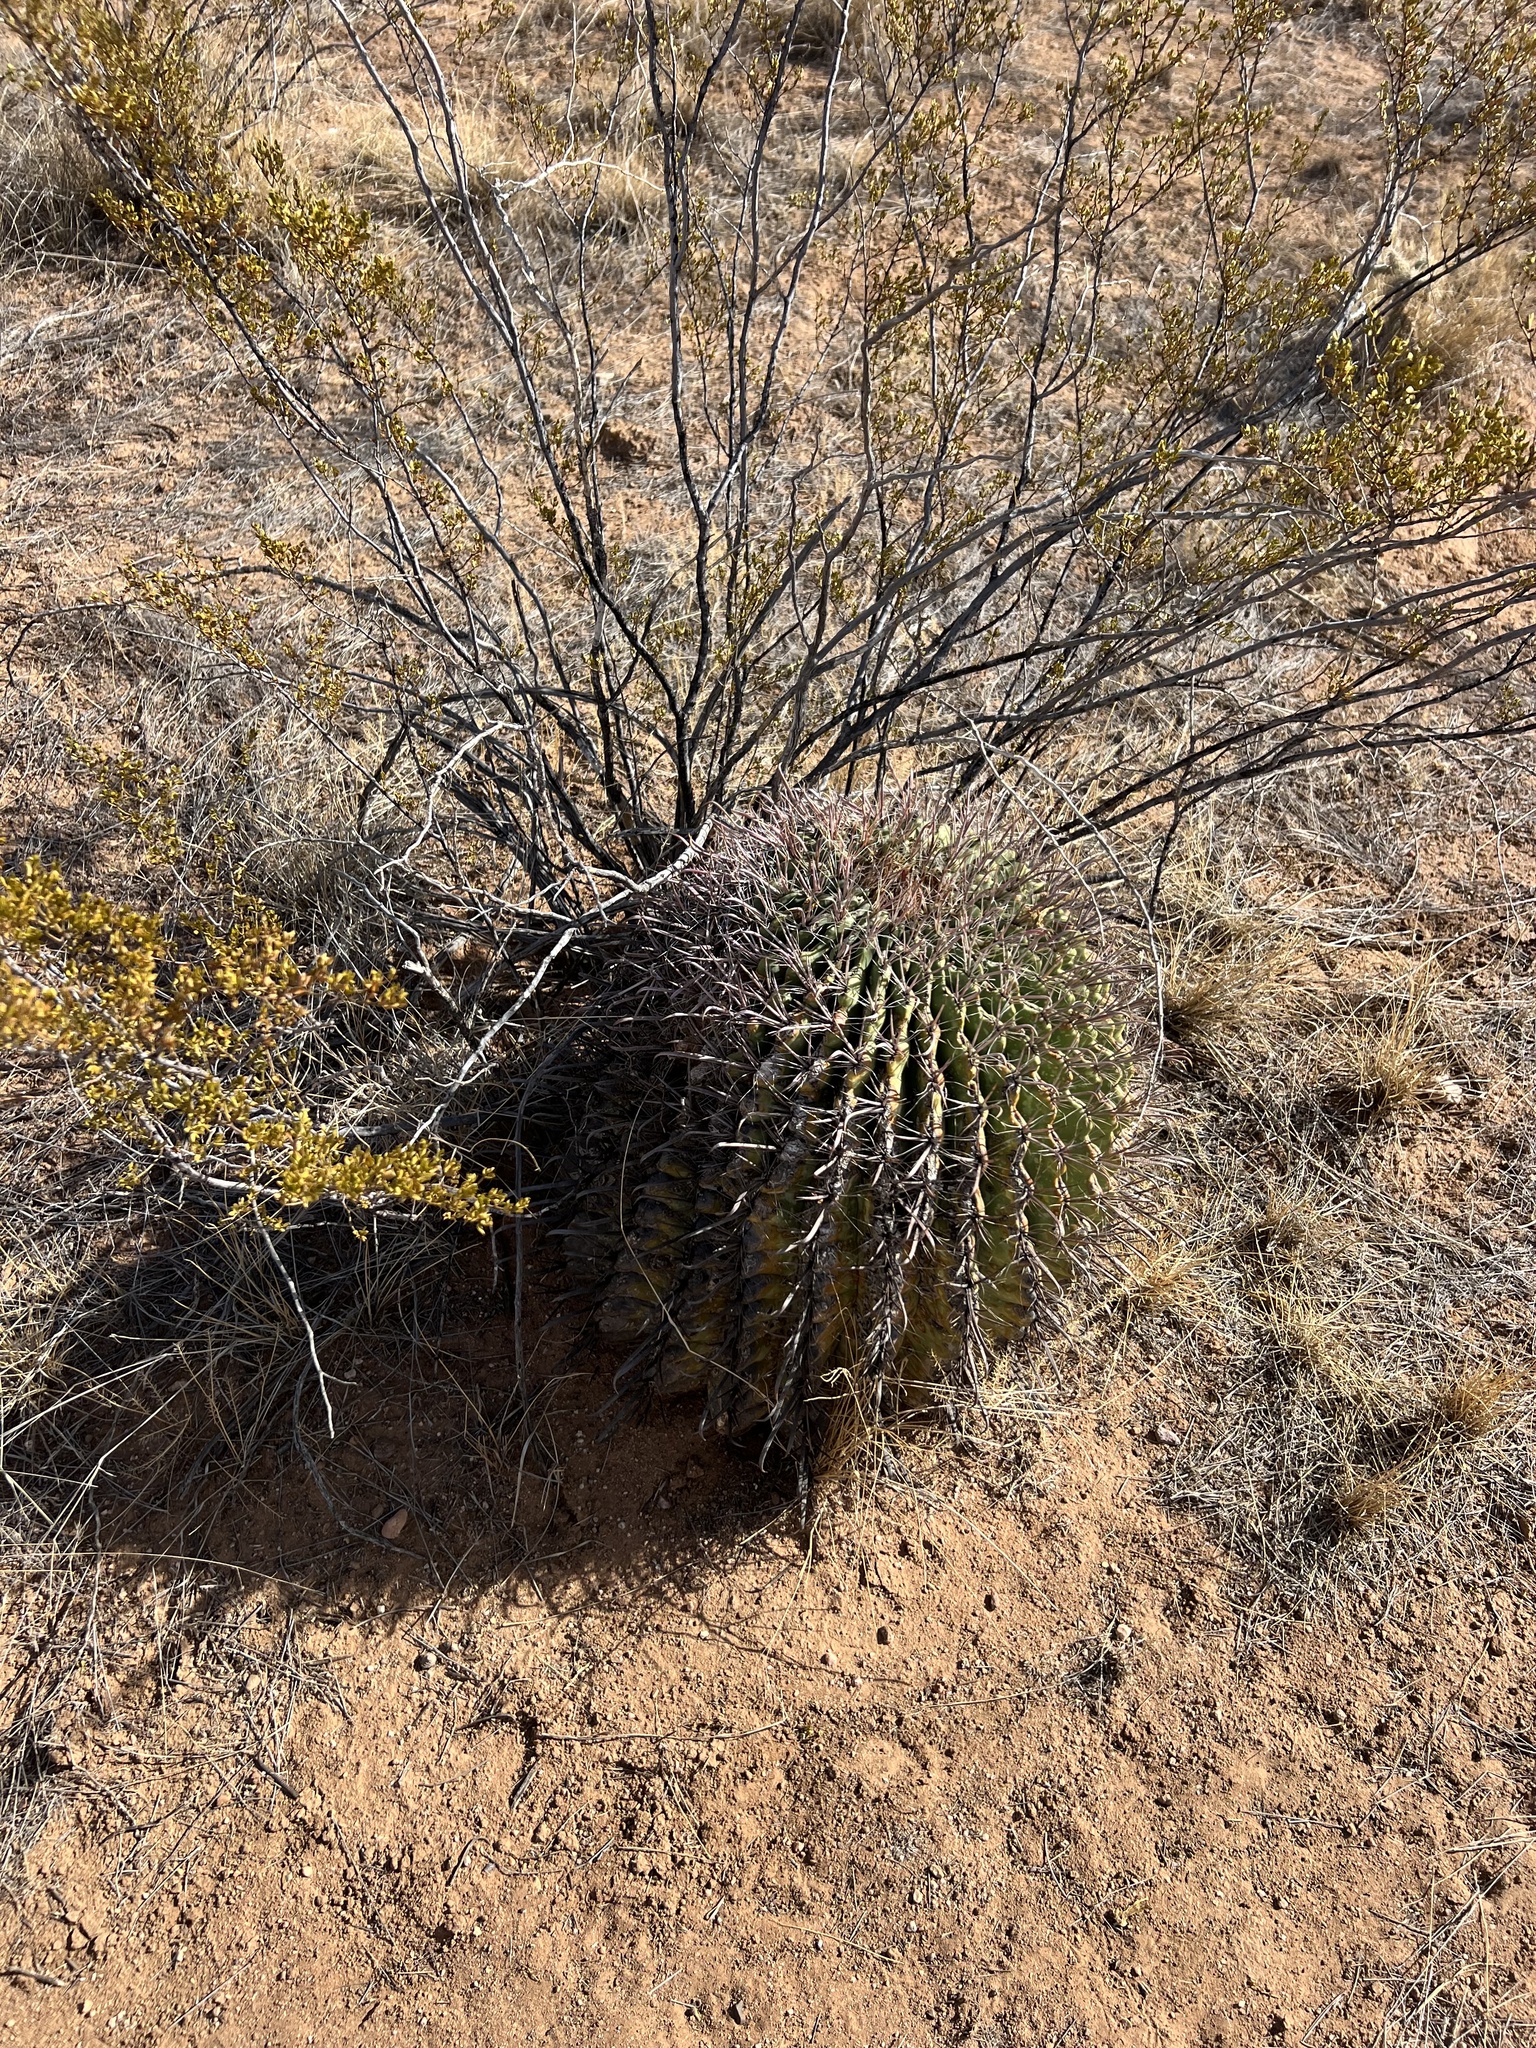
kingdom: Plantae
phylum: Tracheophyta
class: Magnoliopsida
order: Caryophyllales
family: Cactaceae
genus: Ferocactus
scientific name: Ferocactus wislizeni
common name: Candy barrel cactus
